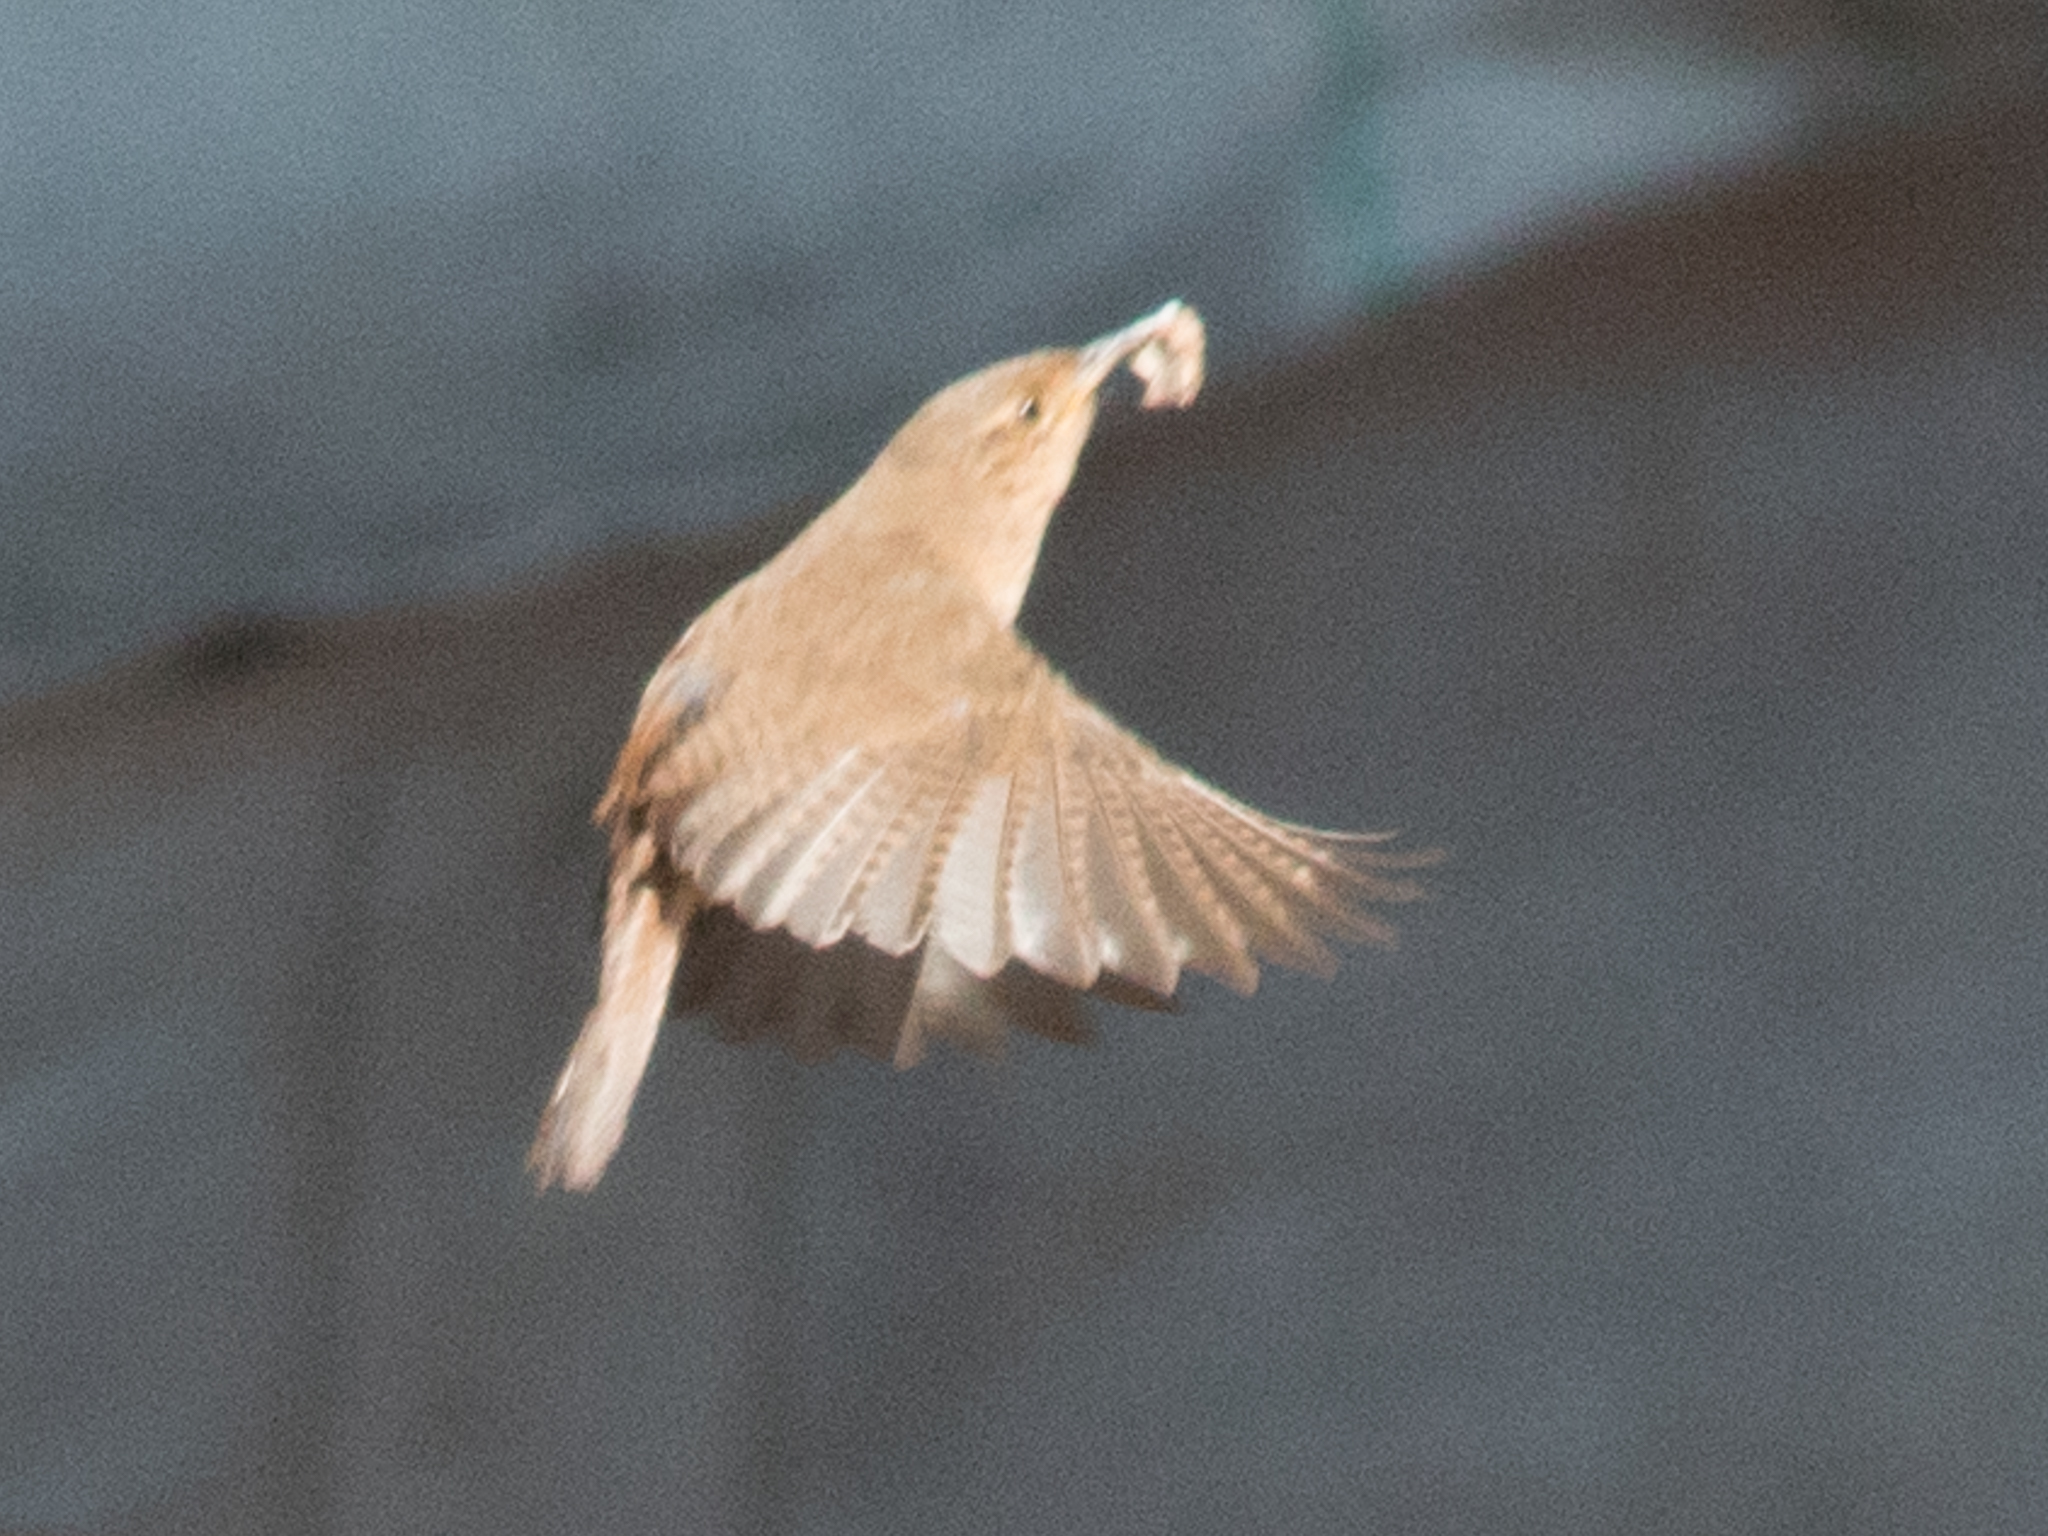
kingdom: Animalia
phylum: Chordata
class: Aves
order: Passeriformes
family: Troglodytidae
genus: Troglodytes
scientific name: Troglodytes aedon
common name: House wren
